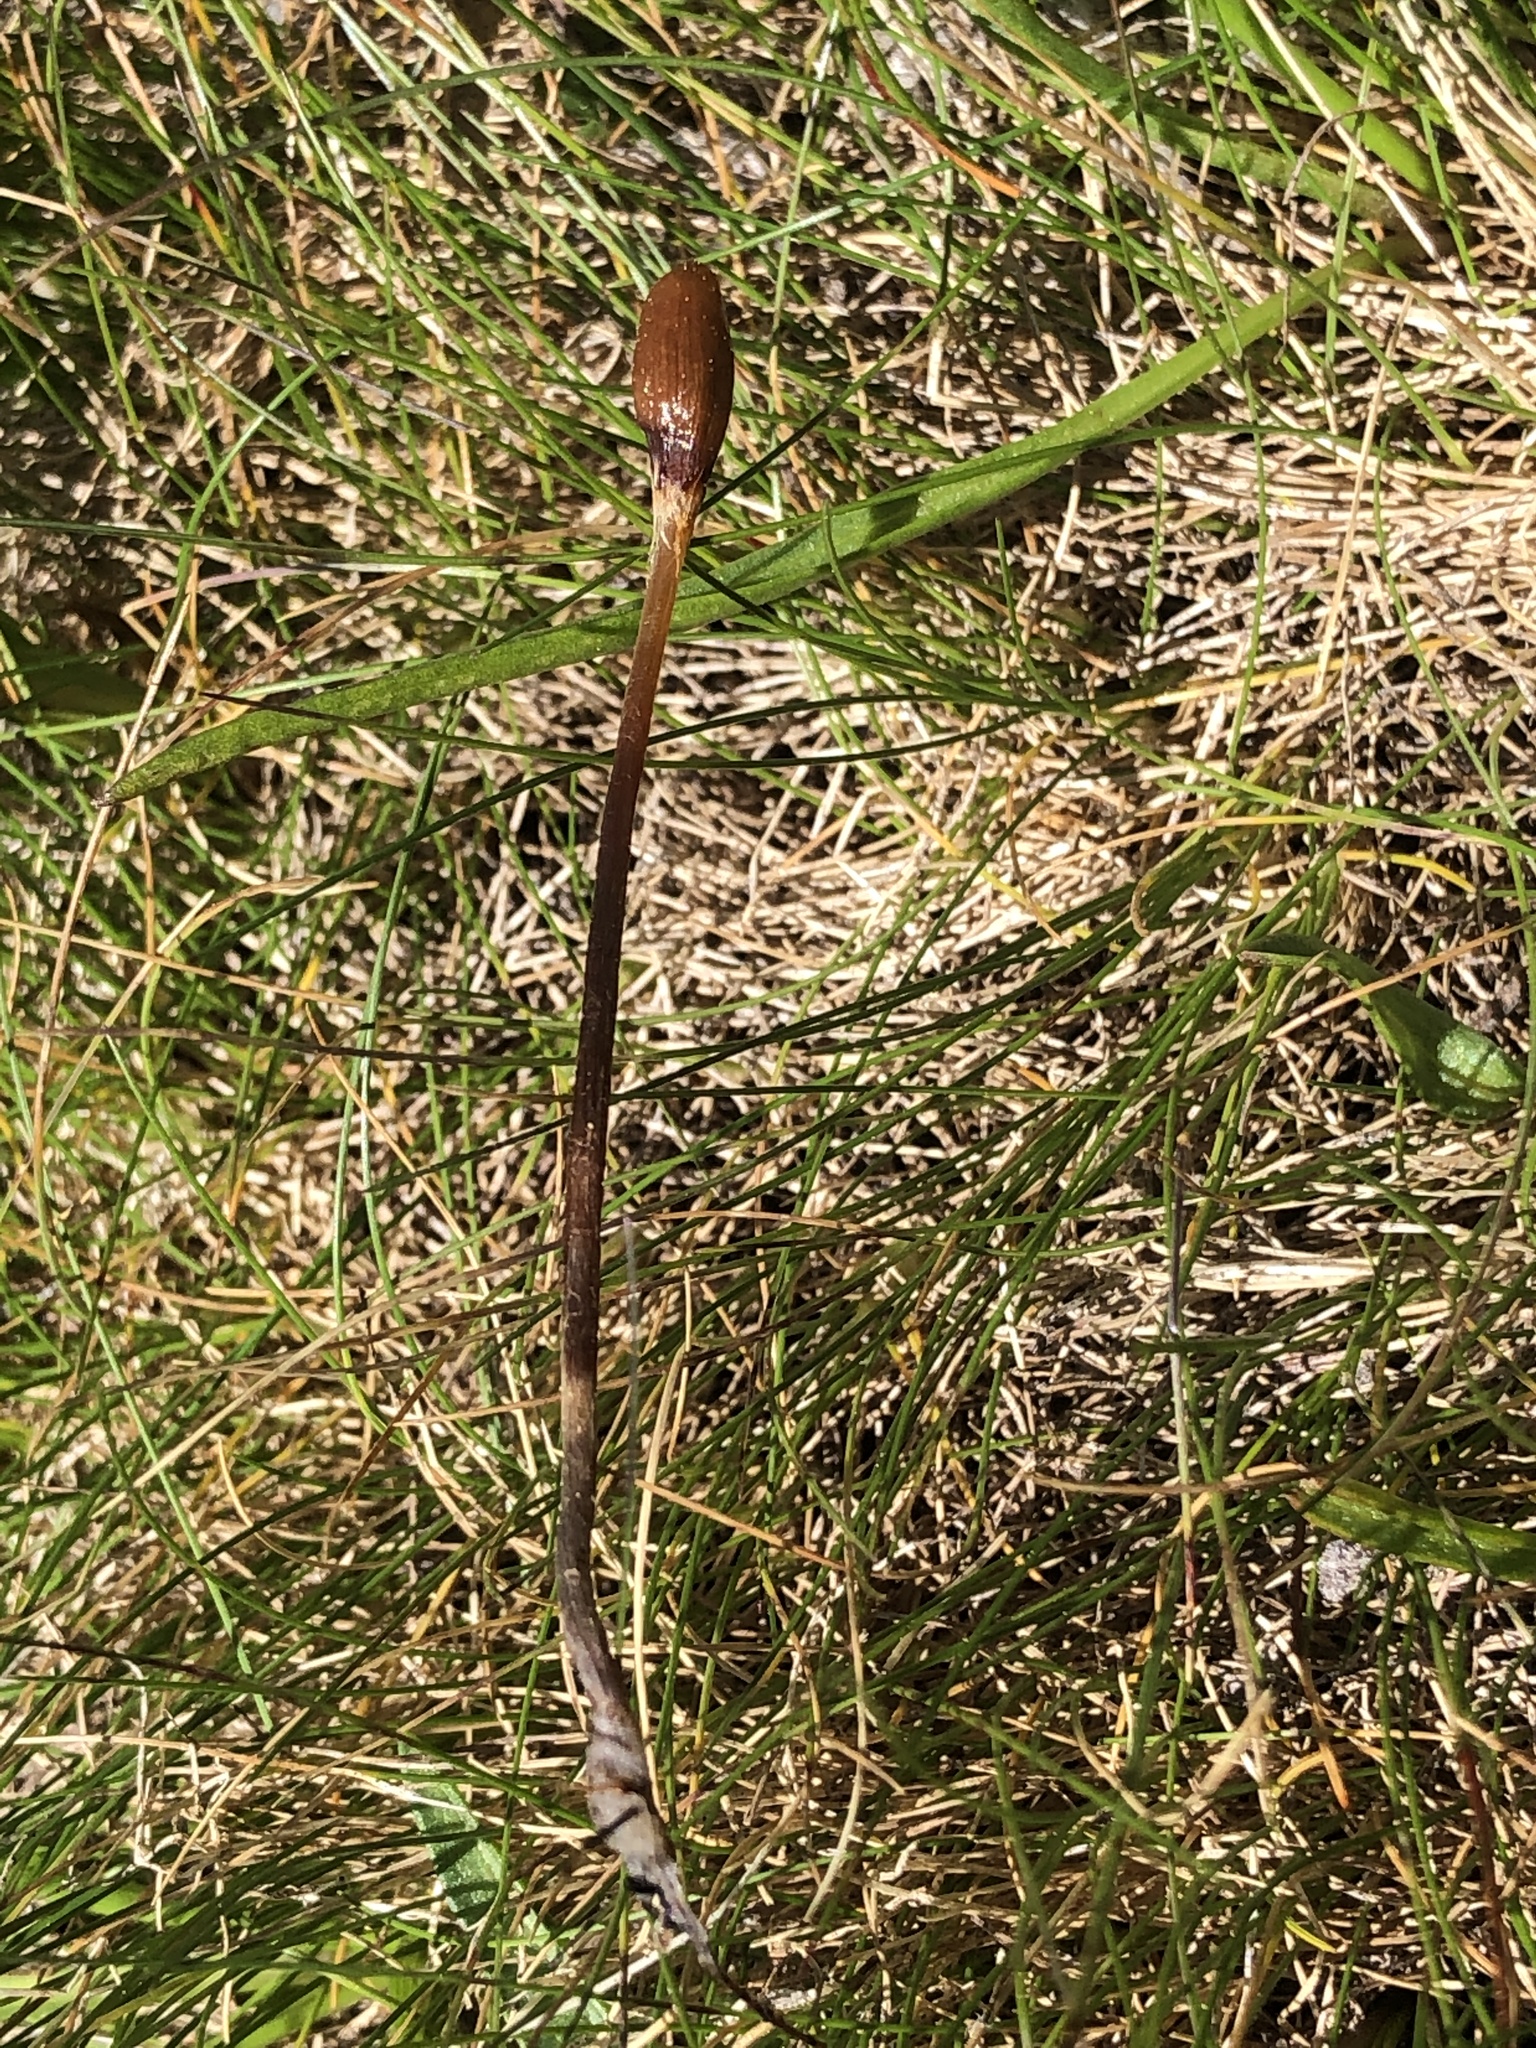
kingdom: Fungi
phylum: Basidiomycota
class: Agaricomycetes
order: Agaricales
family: Bolbitiaceae
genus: Galeropsis
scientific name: Galeropsis polytrichoides
